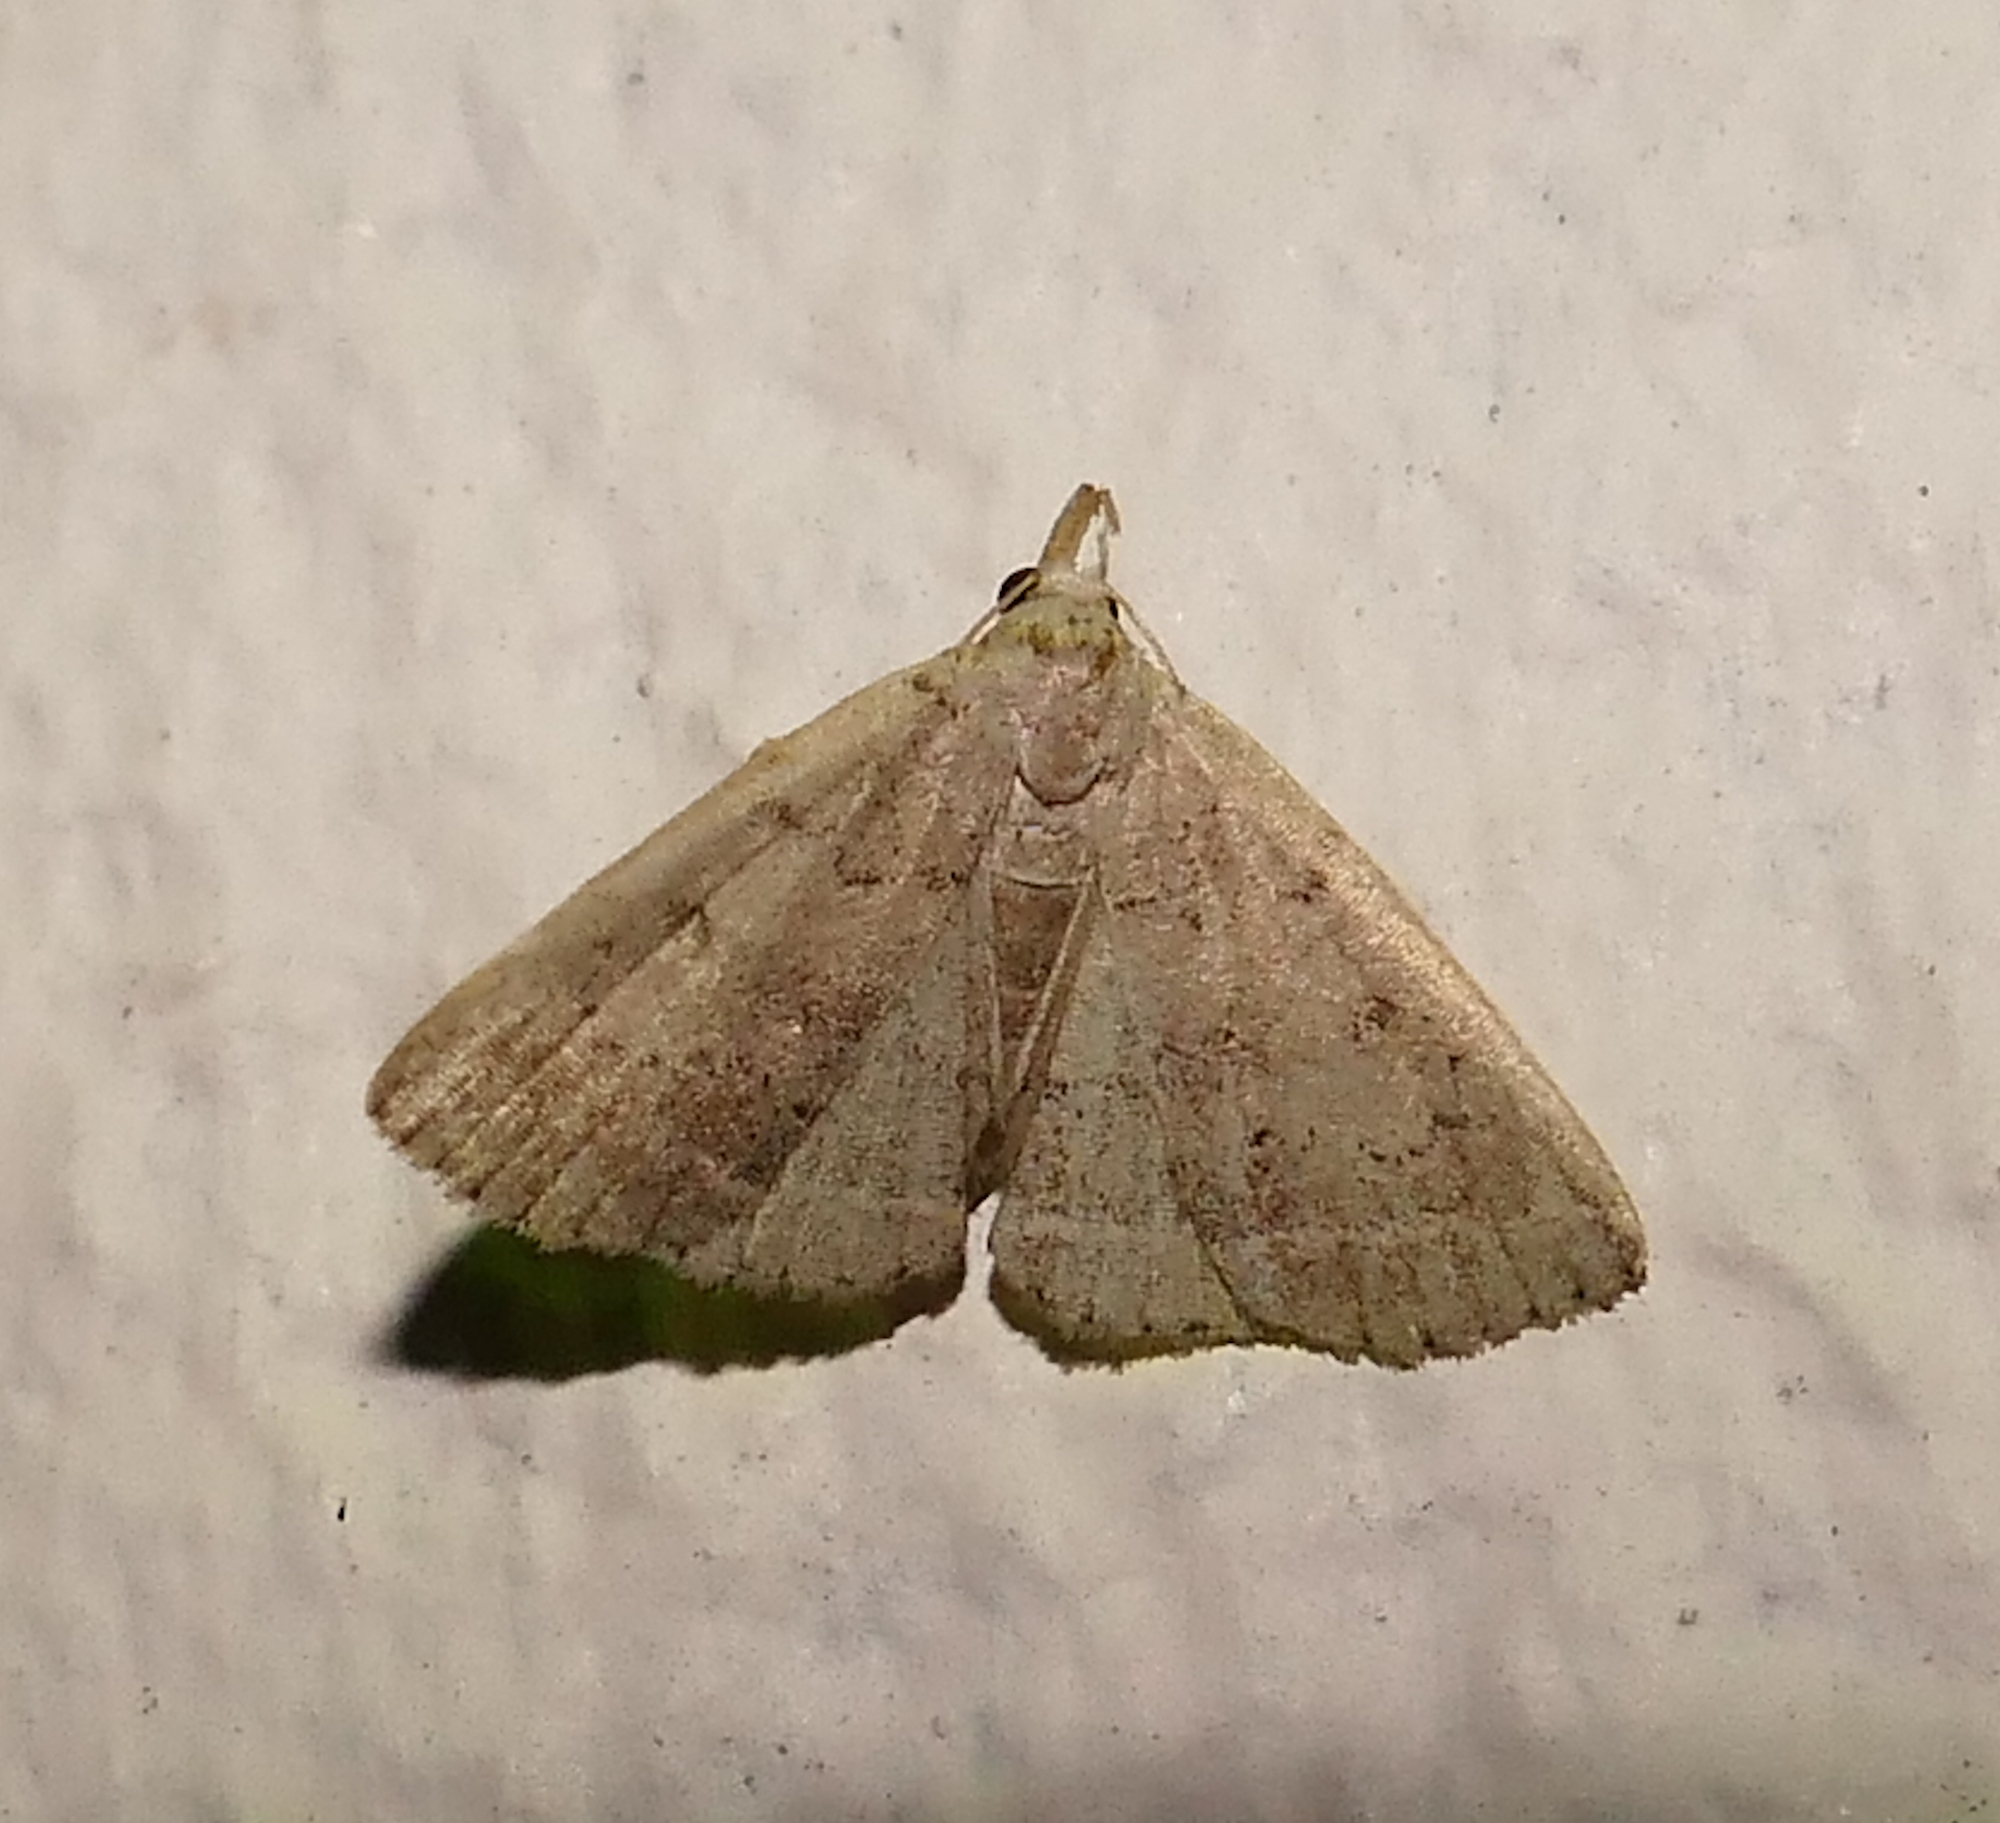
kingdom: Animalia
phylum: Arthropoda
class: Insecta
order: Lepidoptera
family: Erebidae
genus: Zanclognatha
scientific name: Zanclognatha protumnusalis
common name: Complex fan-foot
